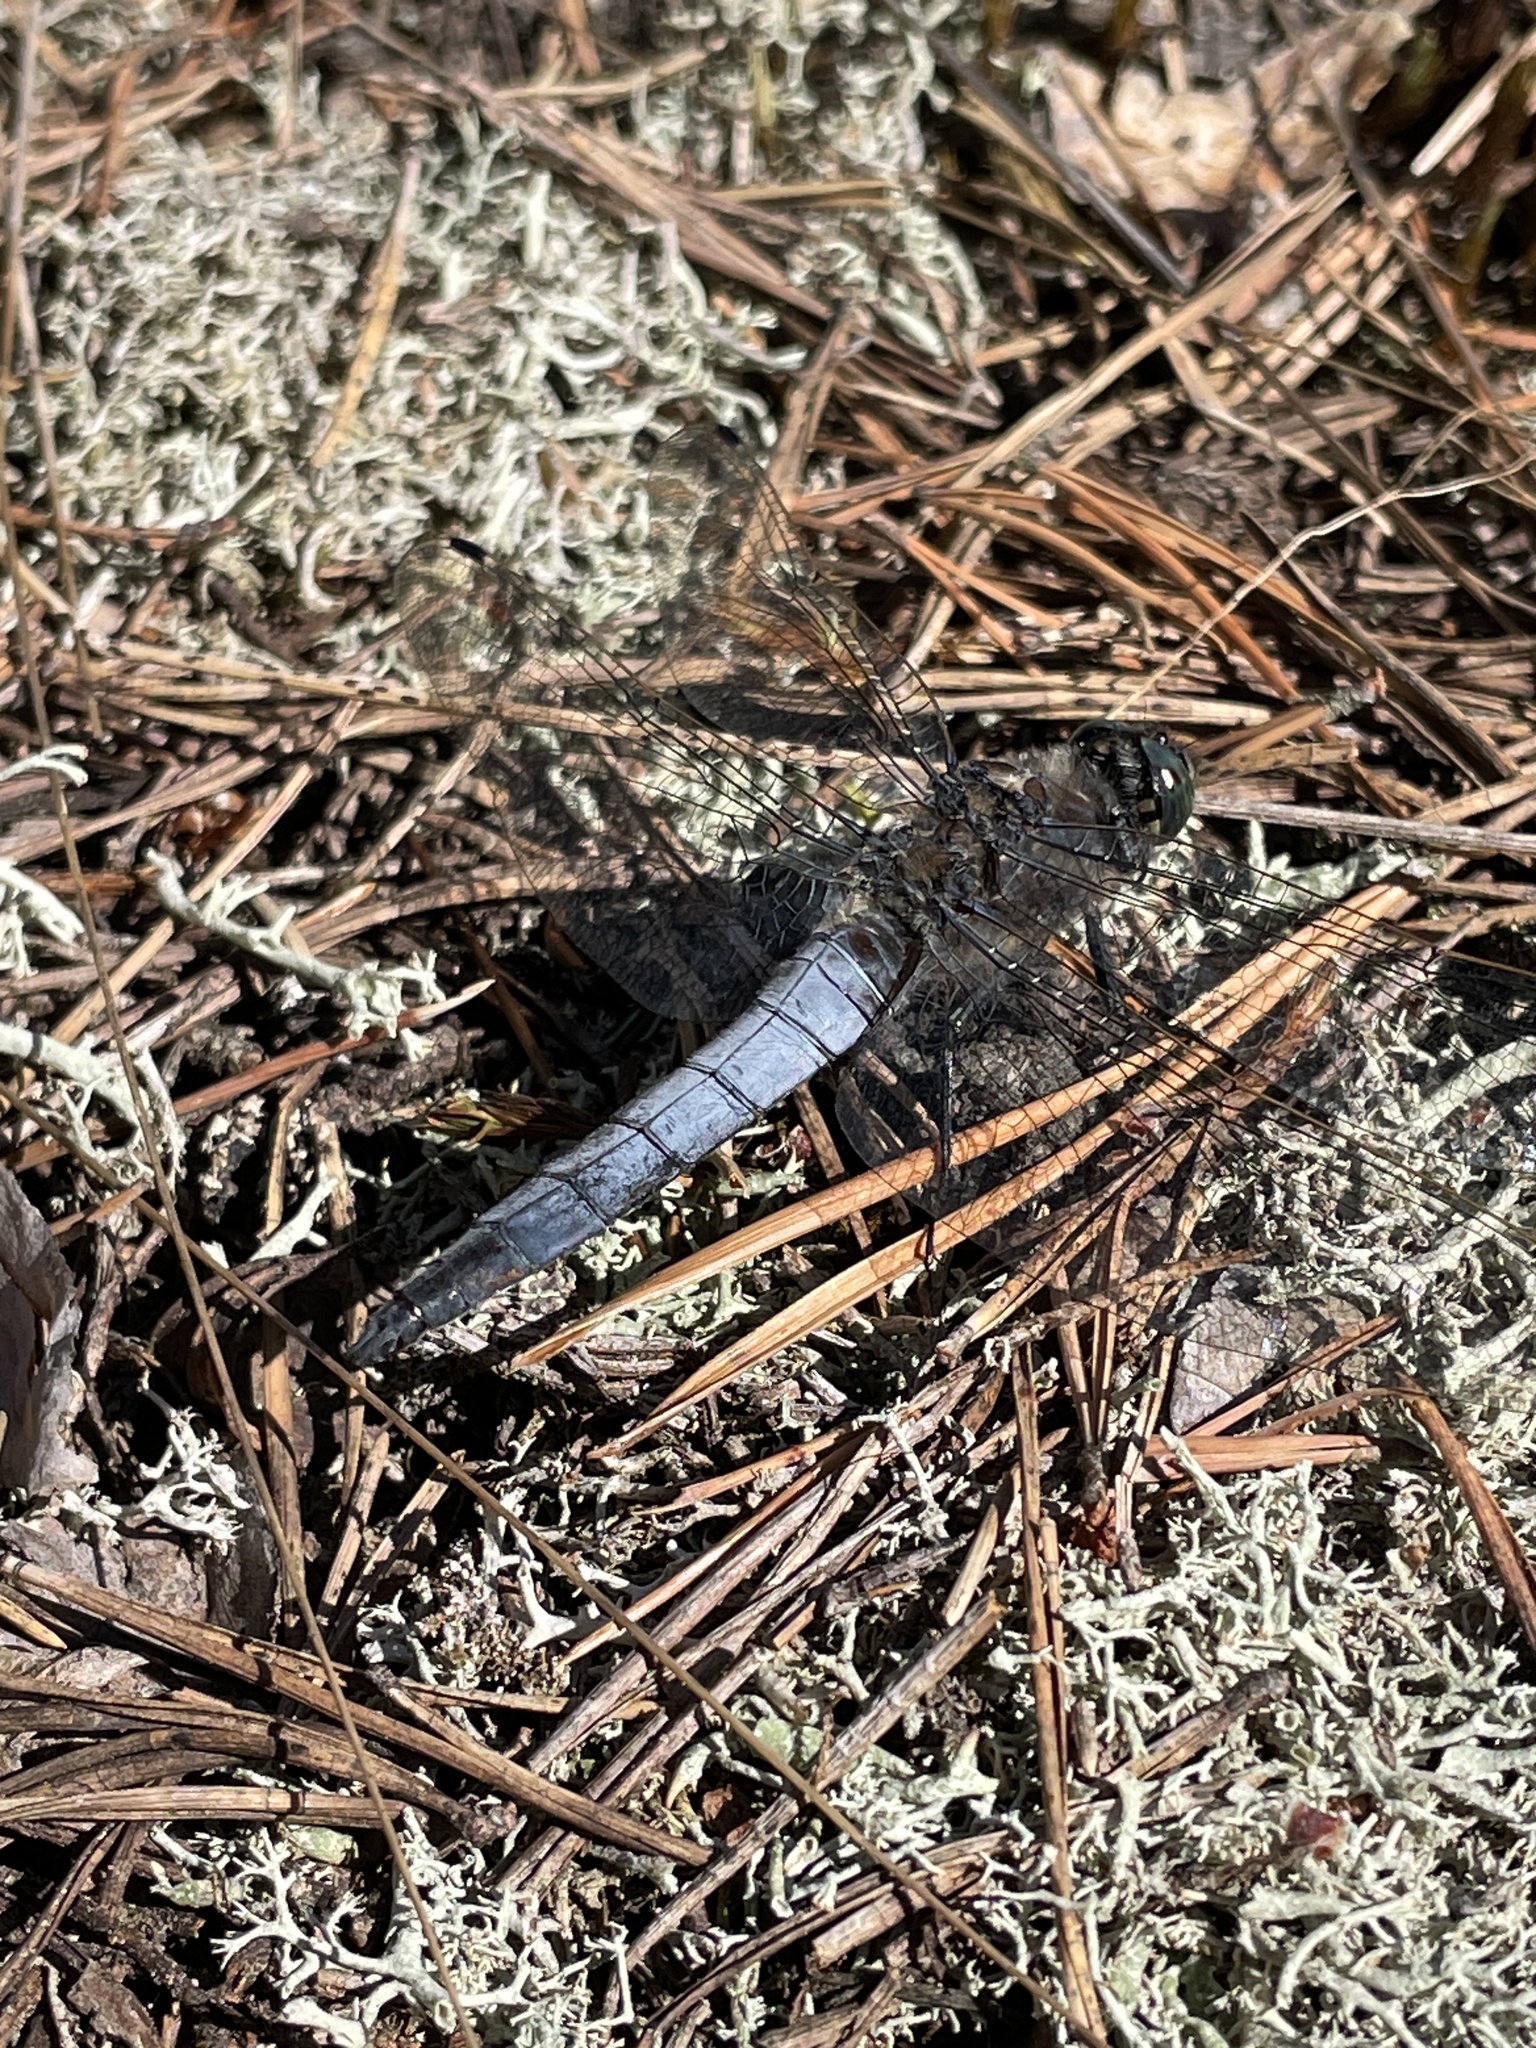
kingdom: Animalia
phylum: Arthropoda
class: Insecta
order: Odonata
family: Libellulidae
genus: Orthetrum
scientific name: Orthetrum cancellatum
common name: Black-tailed skimmer
